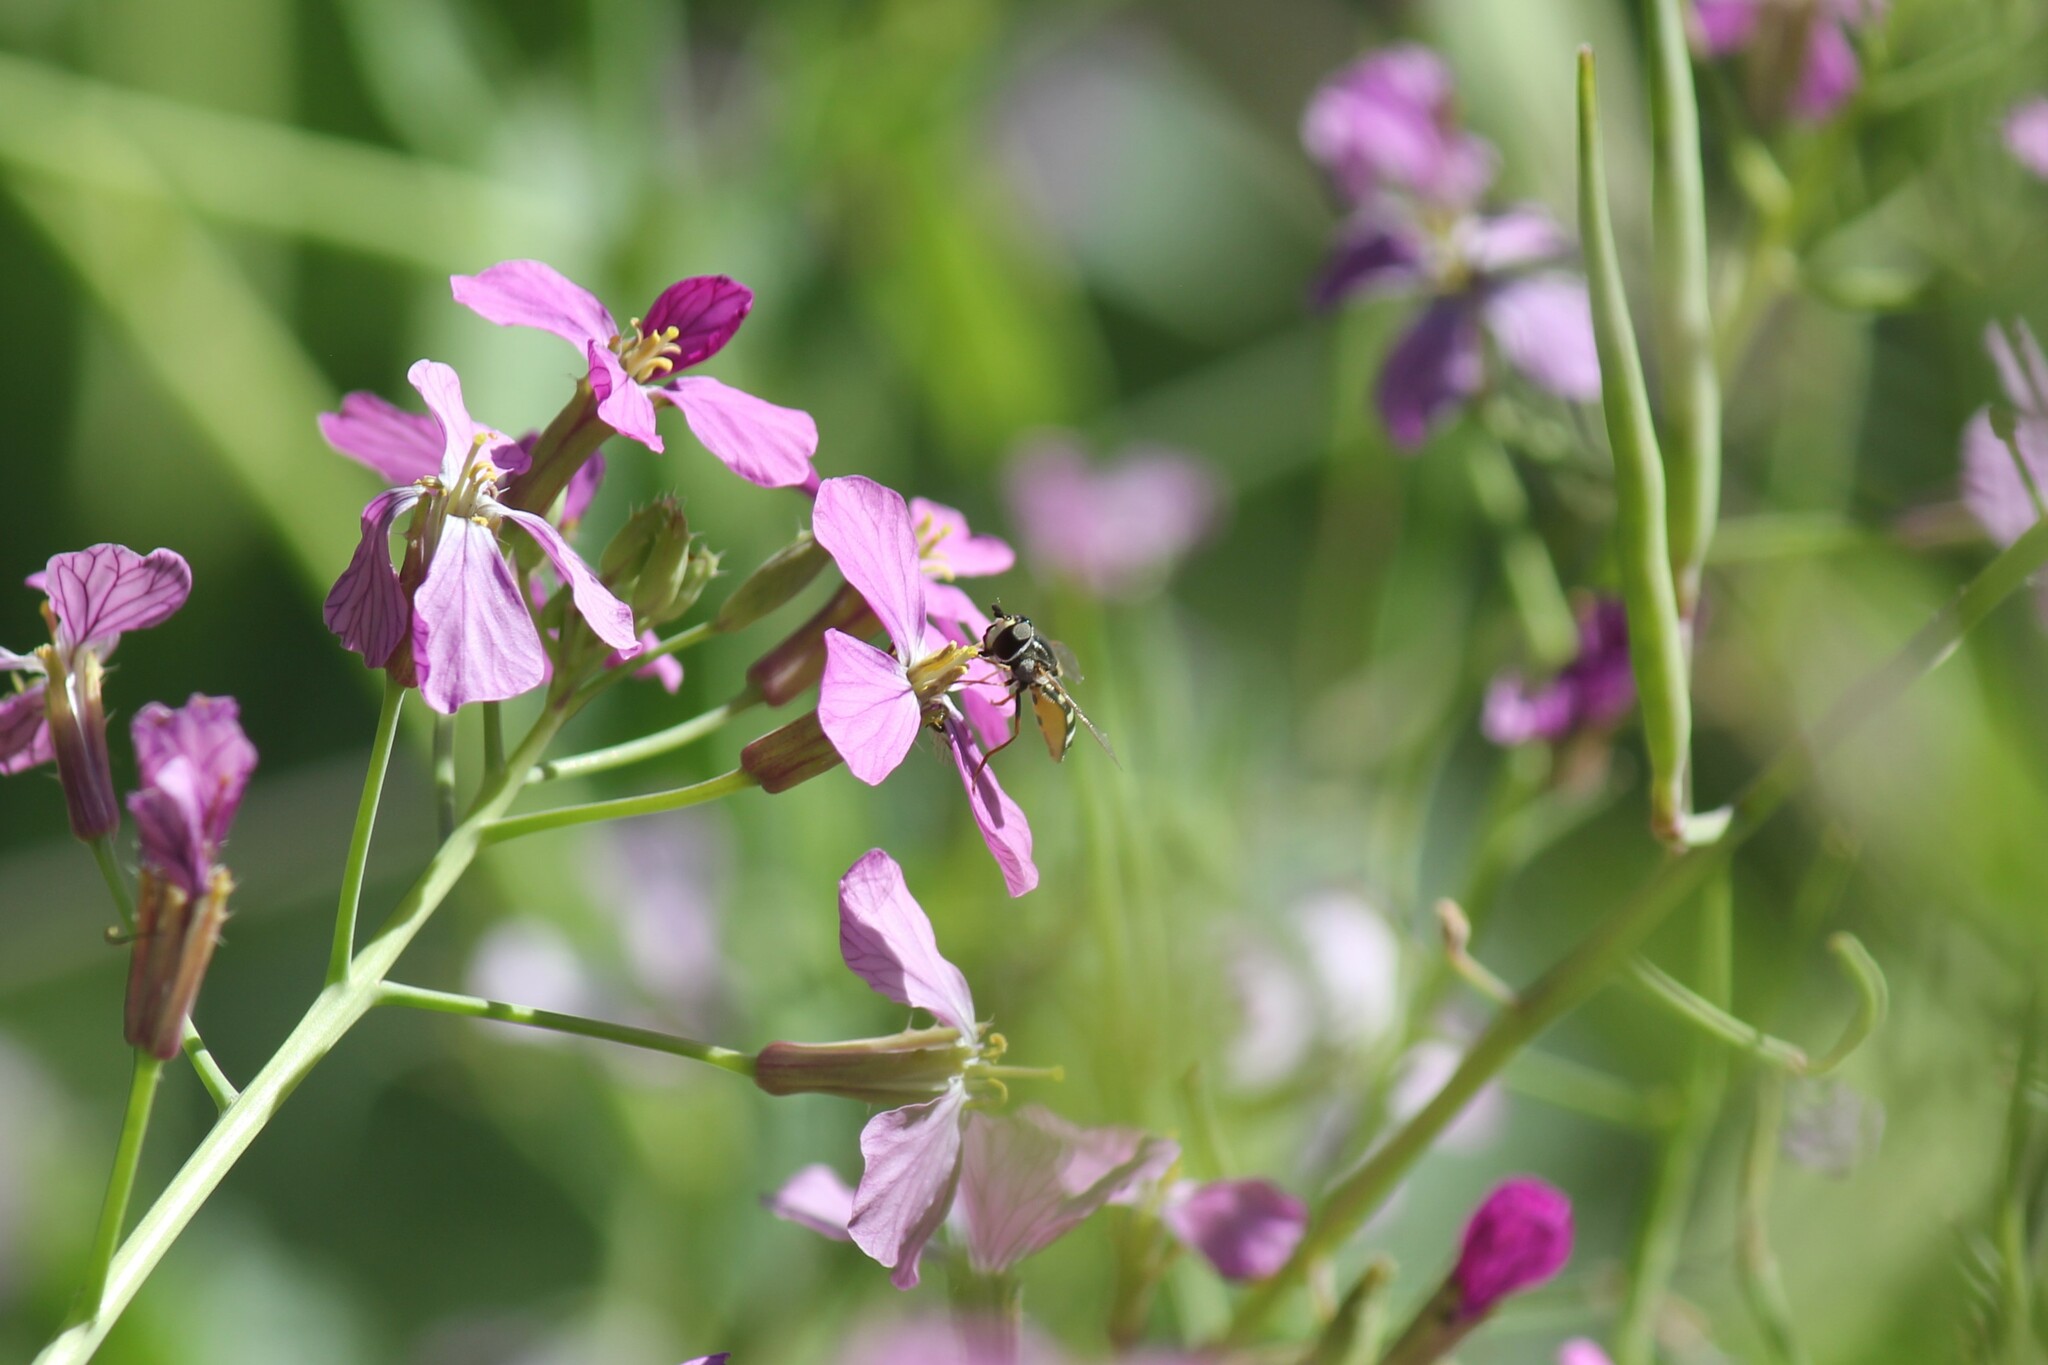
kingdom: Animalia
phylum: Arthropoda
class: Insecta
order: Diptera
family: Syrphidae
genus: Eupeodes
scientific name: Eupeodes volucris
